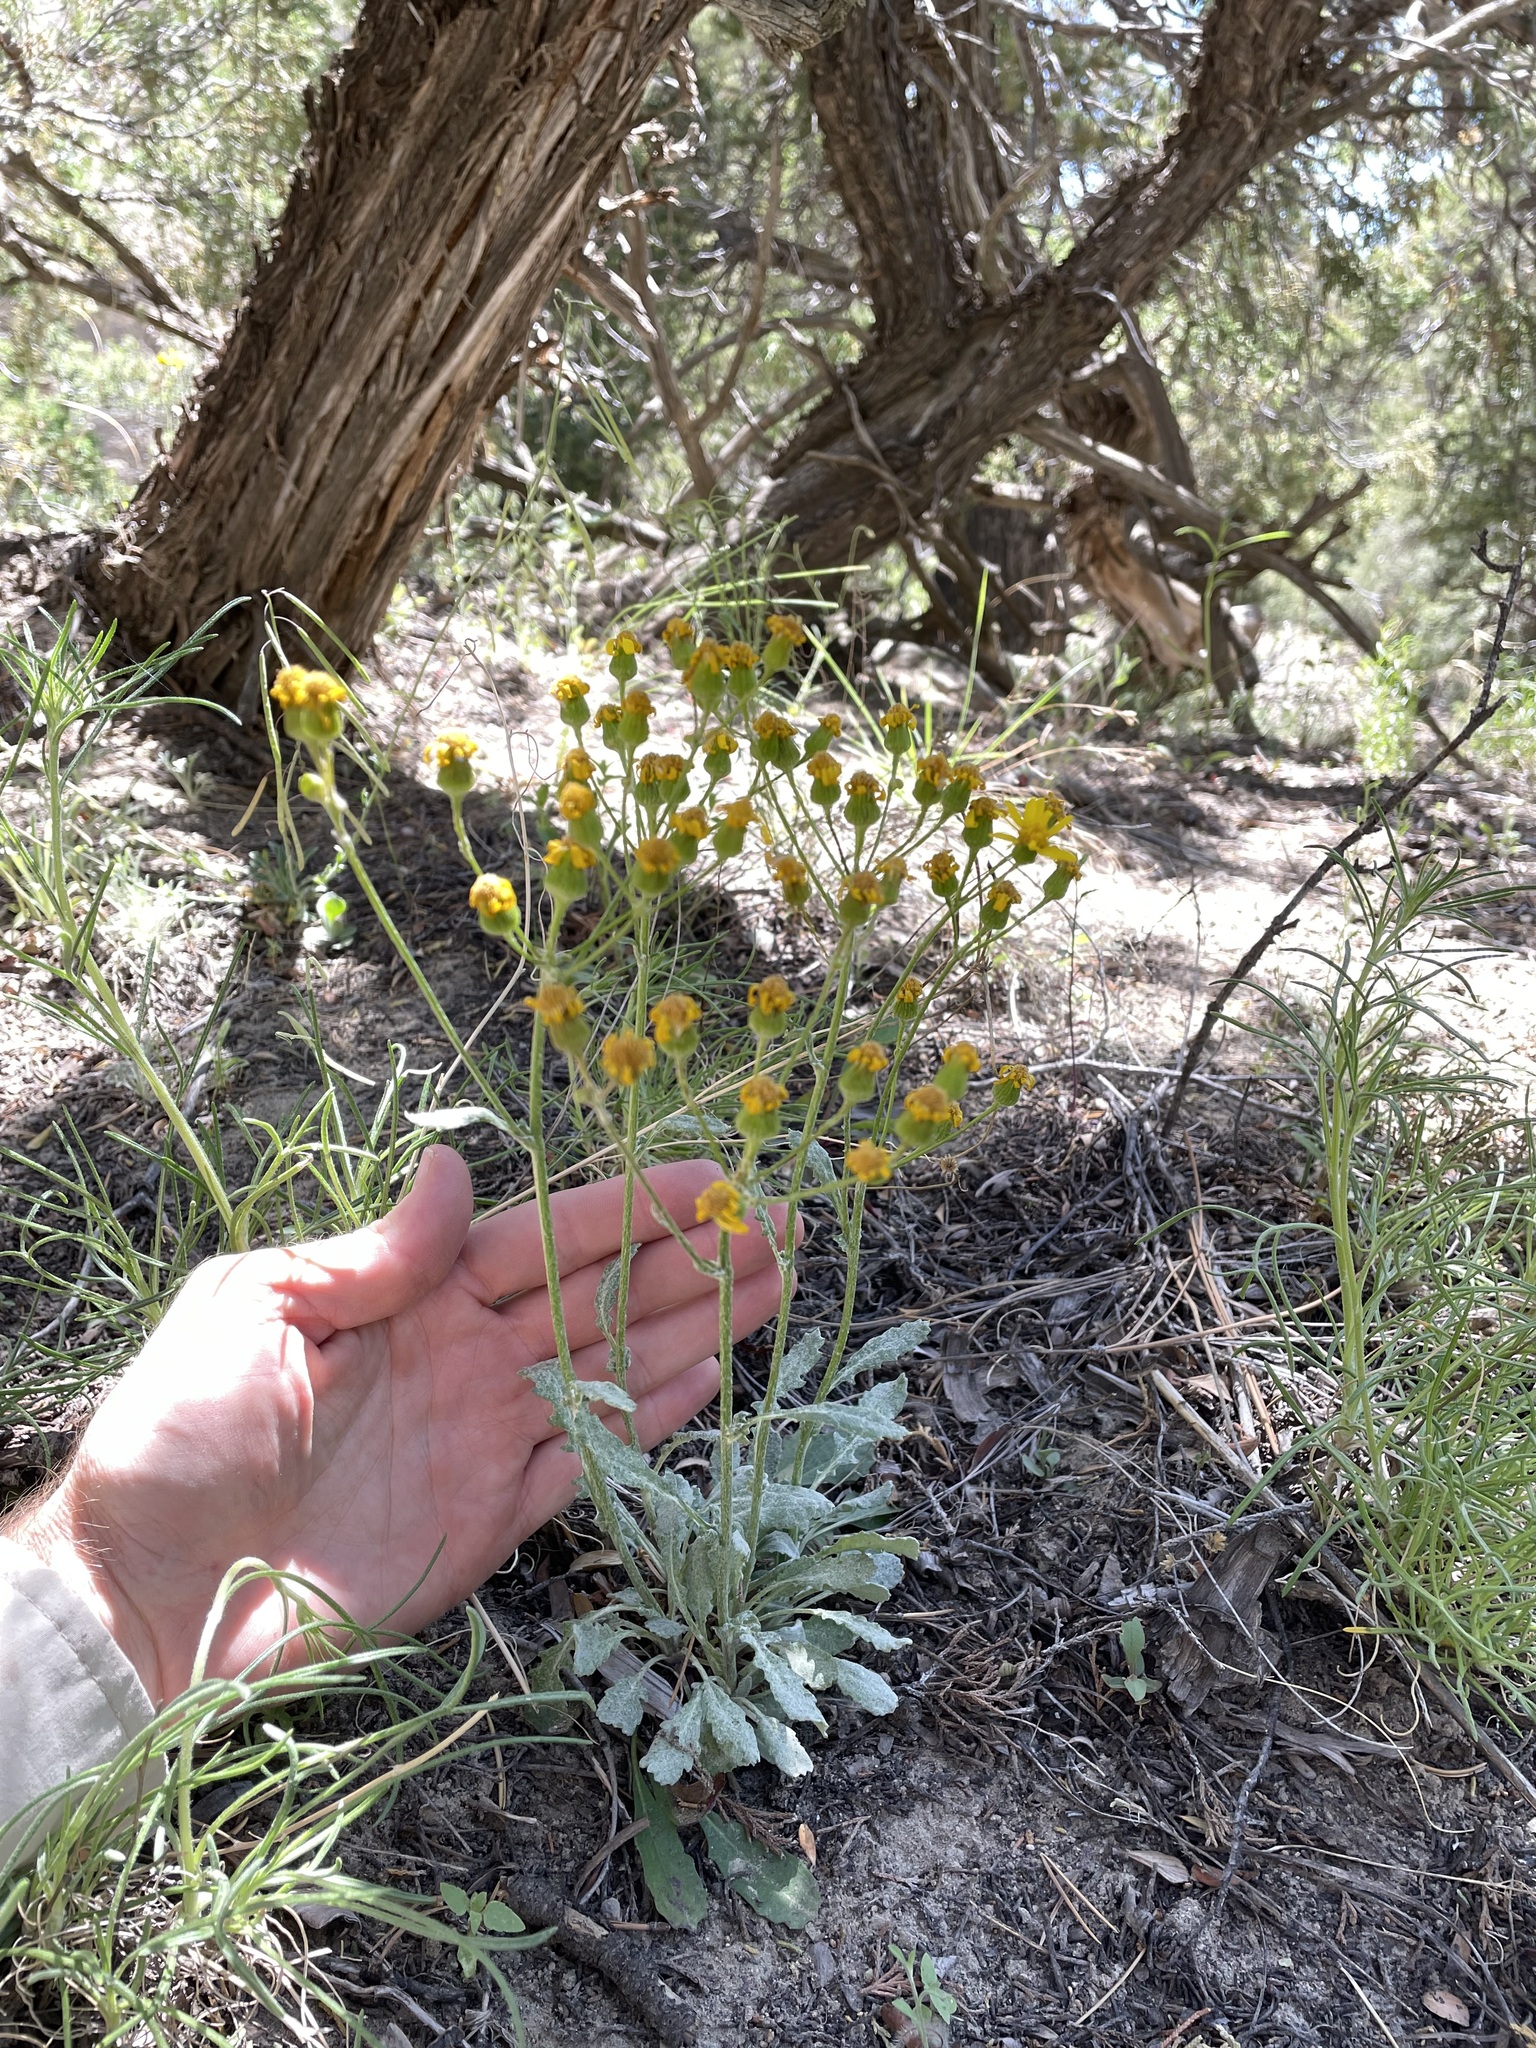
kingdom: Plantae
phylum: Tracheophyta
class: Magnoliopsida
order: Asterales
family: Asteraceae
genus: Packera
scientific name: Packera neomexicana
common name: New mexico butterweed
